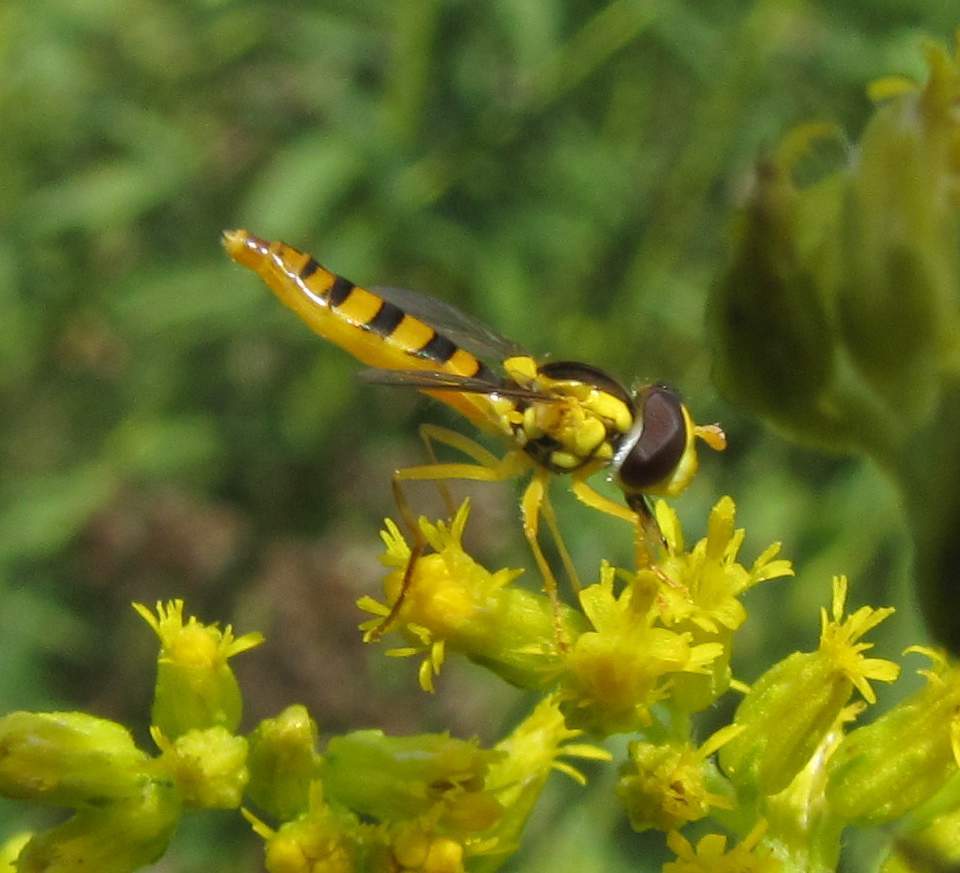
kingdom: Animalia
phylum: Arthropoda
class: Insecta
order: Diptera
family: Syrphidae
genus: Sphaerophoria
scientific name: Sphaerophoria
